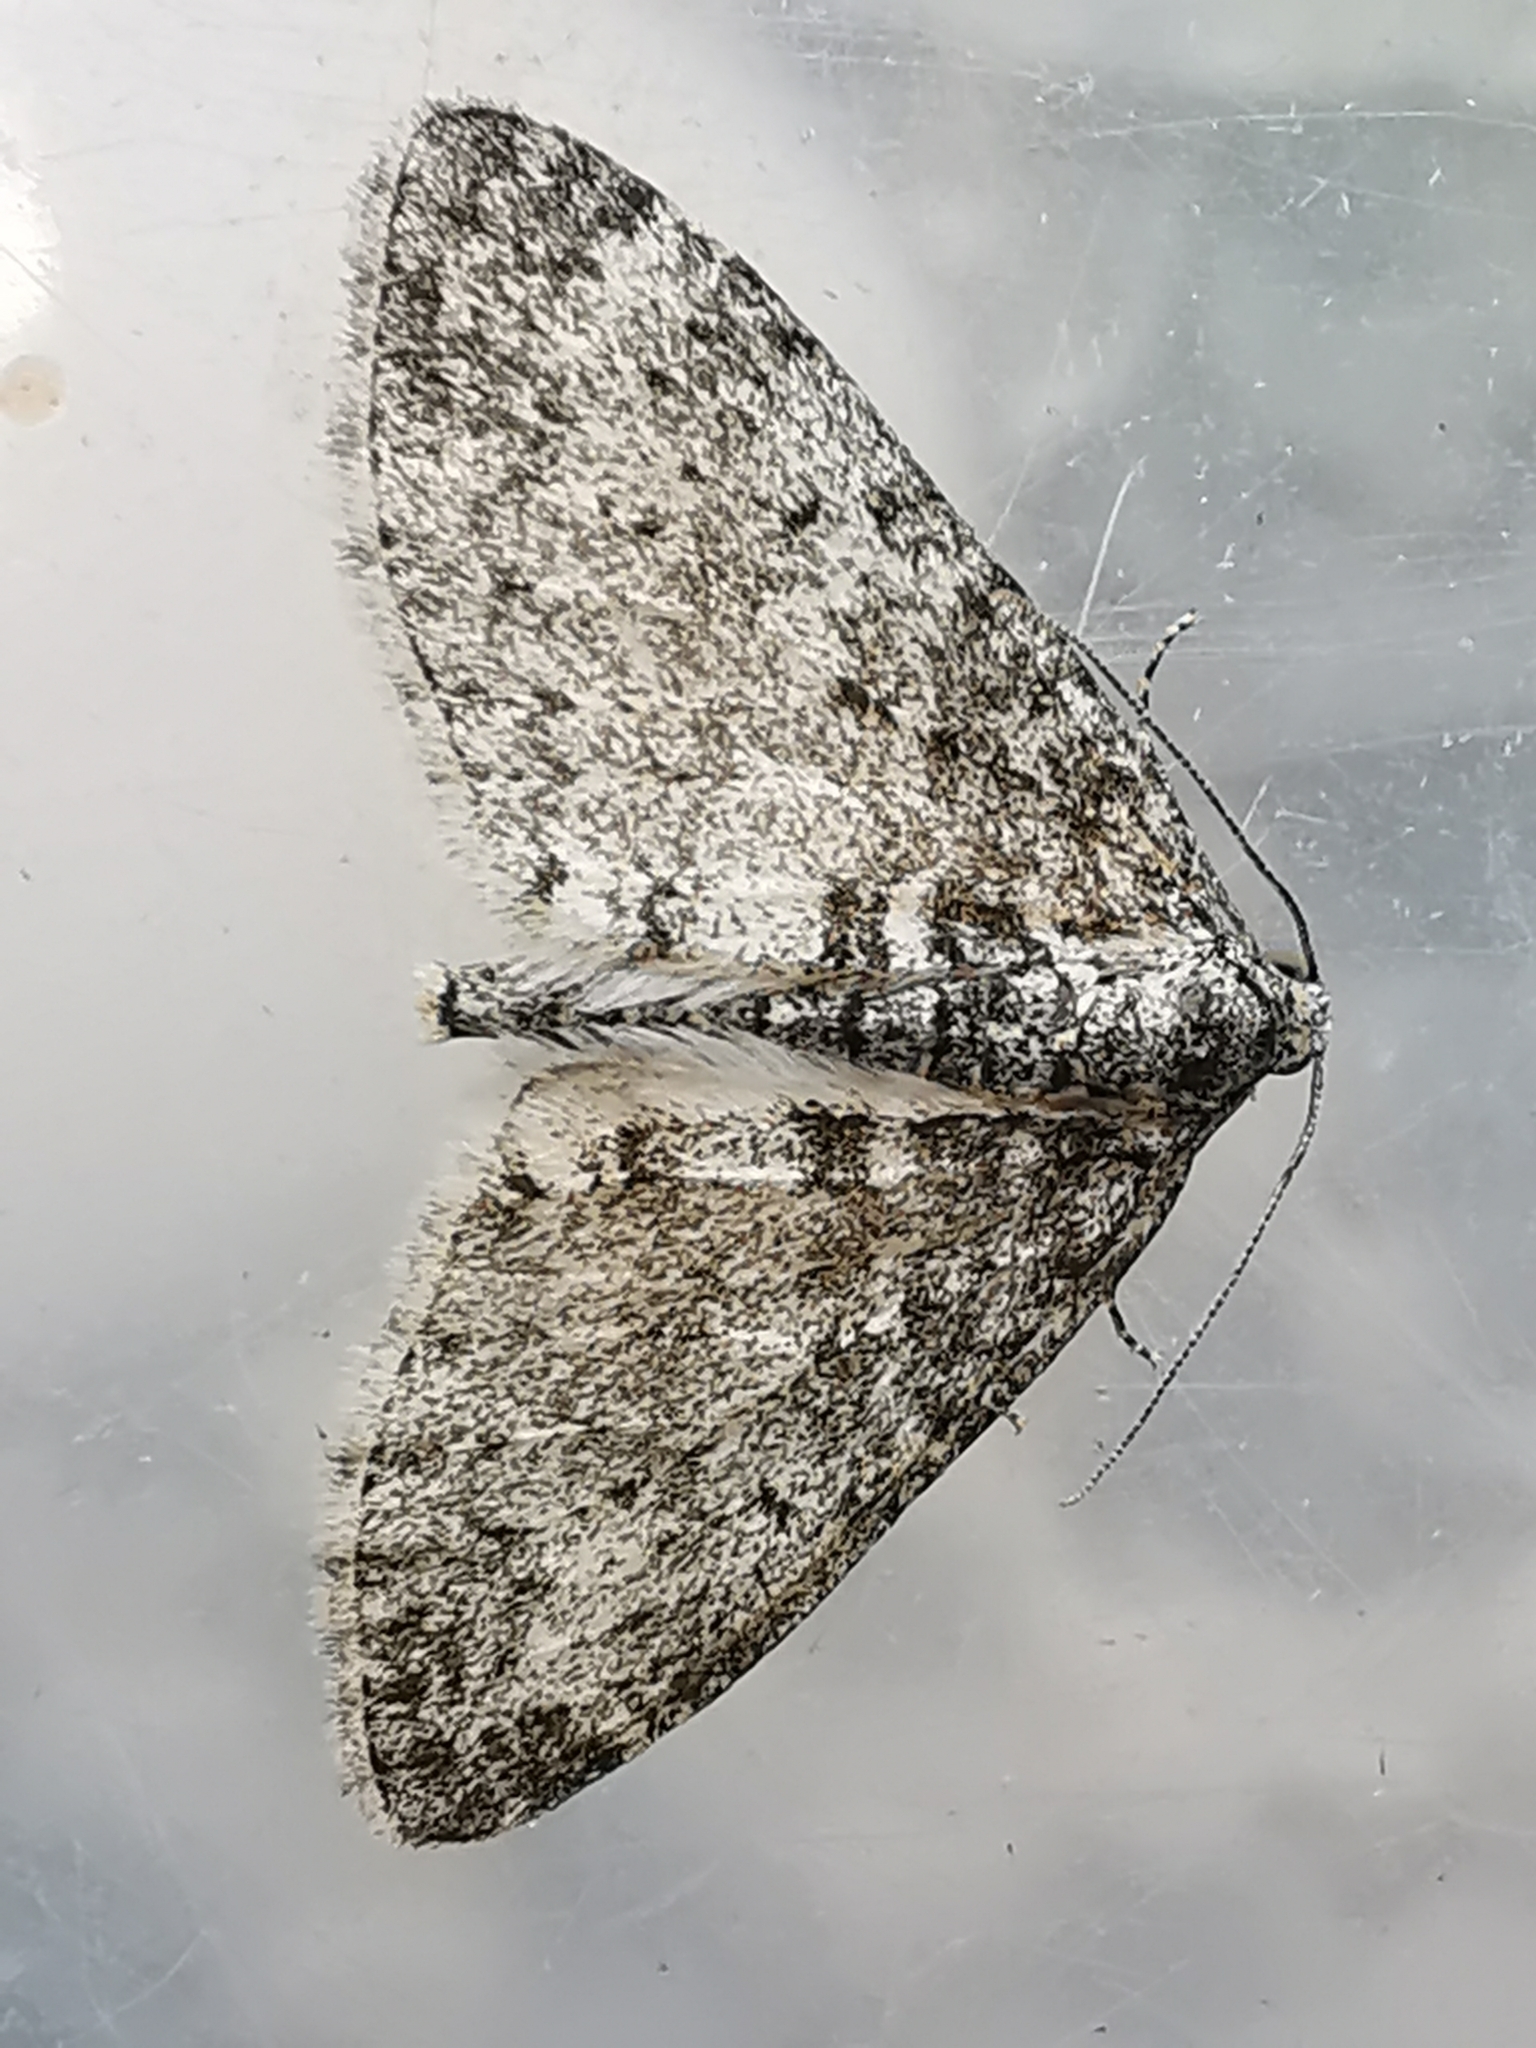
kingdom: Animalia
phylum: Arthropoda
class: Insecta
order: Lepidoptera
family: Geometridae
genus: Lobophora
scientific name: Lobophora halterata
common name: Seraphim
